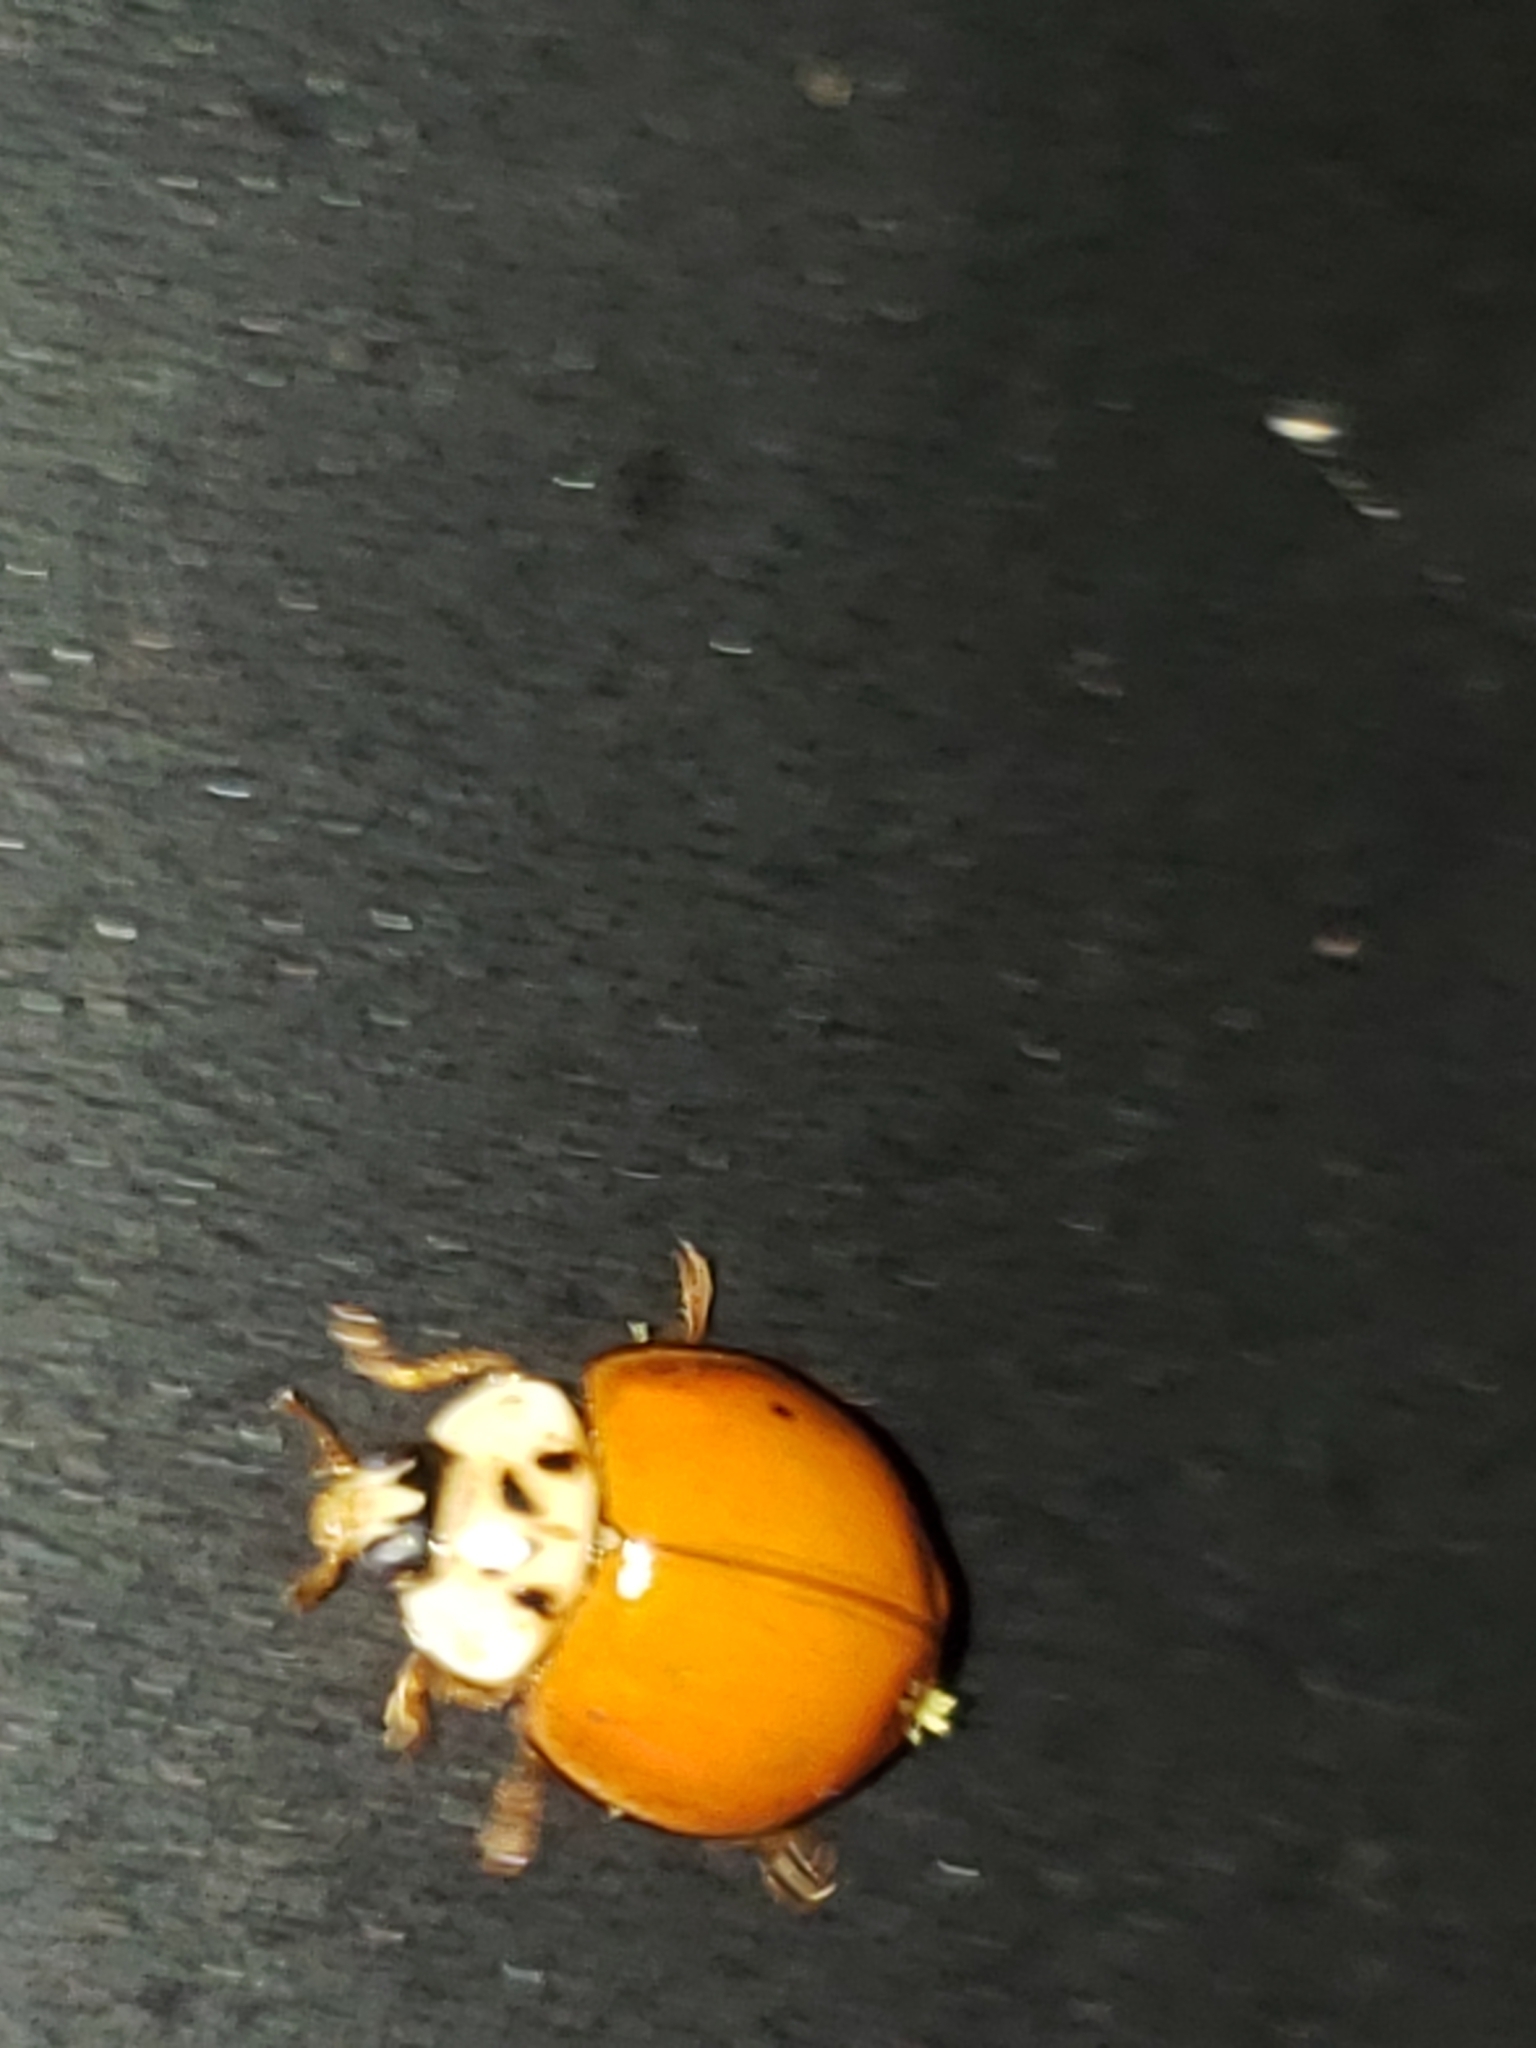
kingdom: Animalia
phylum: Arthropoda
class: Insecta
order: Coleoptera
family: Coccinellidae
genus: Harmonia
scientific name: Harmonia axyridis
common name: Harlequin ladybird
